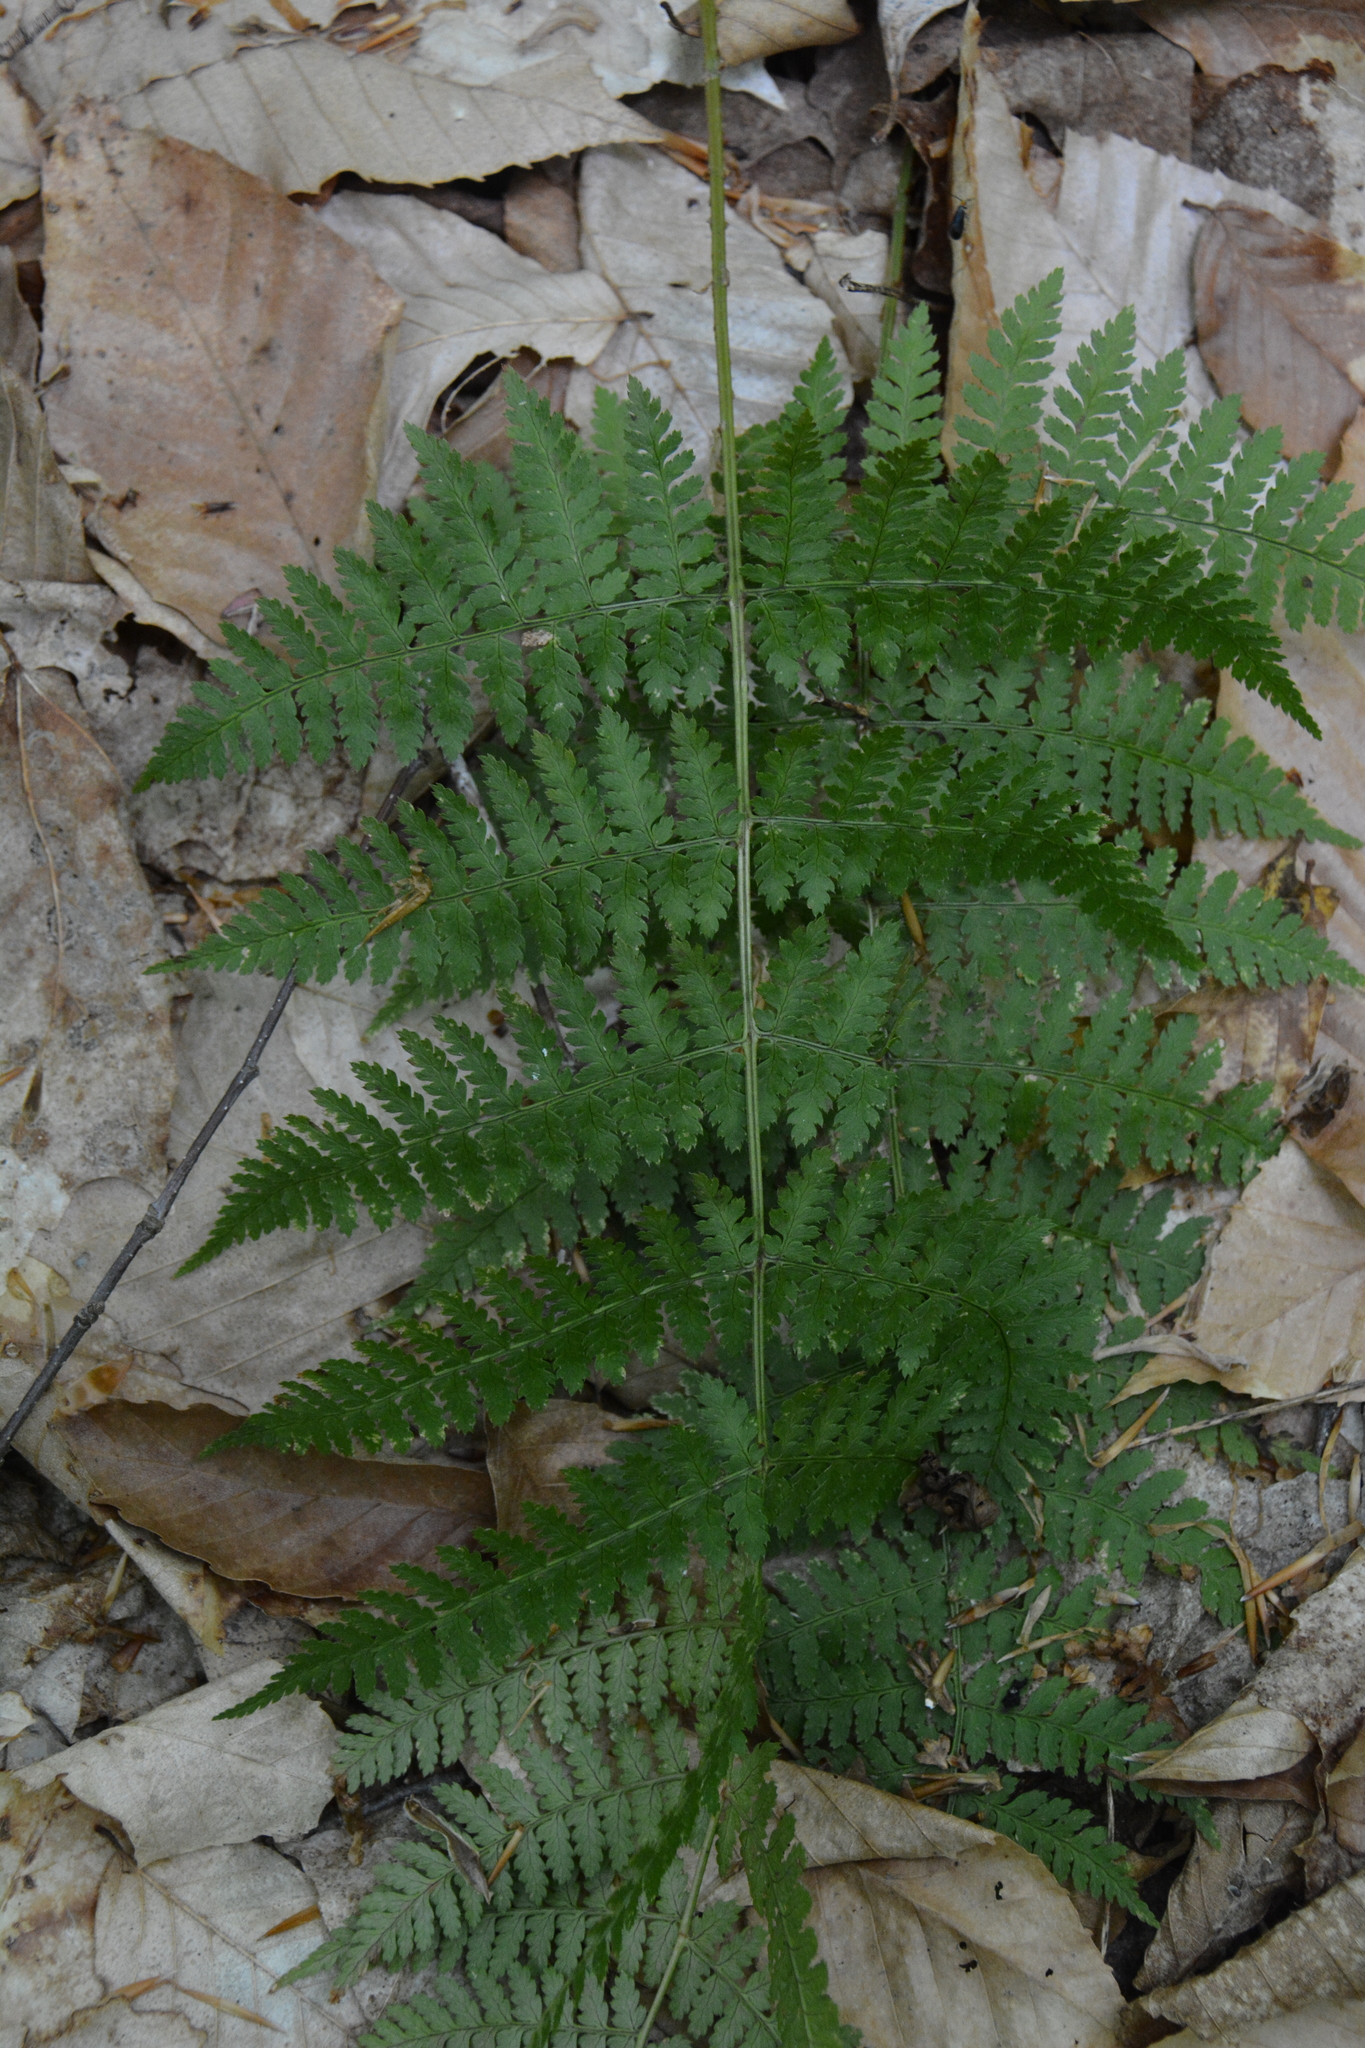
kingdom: Plantae
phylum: Tracheophyta
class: Polypodiopsida
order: Polypodiales
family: Dryopteridaceae
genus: Dryopteris
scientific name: Dryopteris intermedia
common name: Evergreen wood fern
